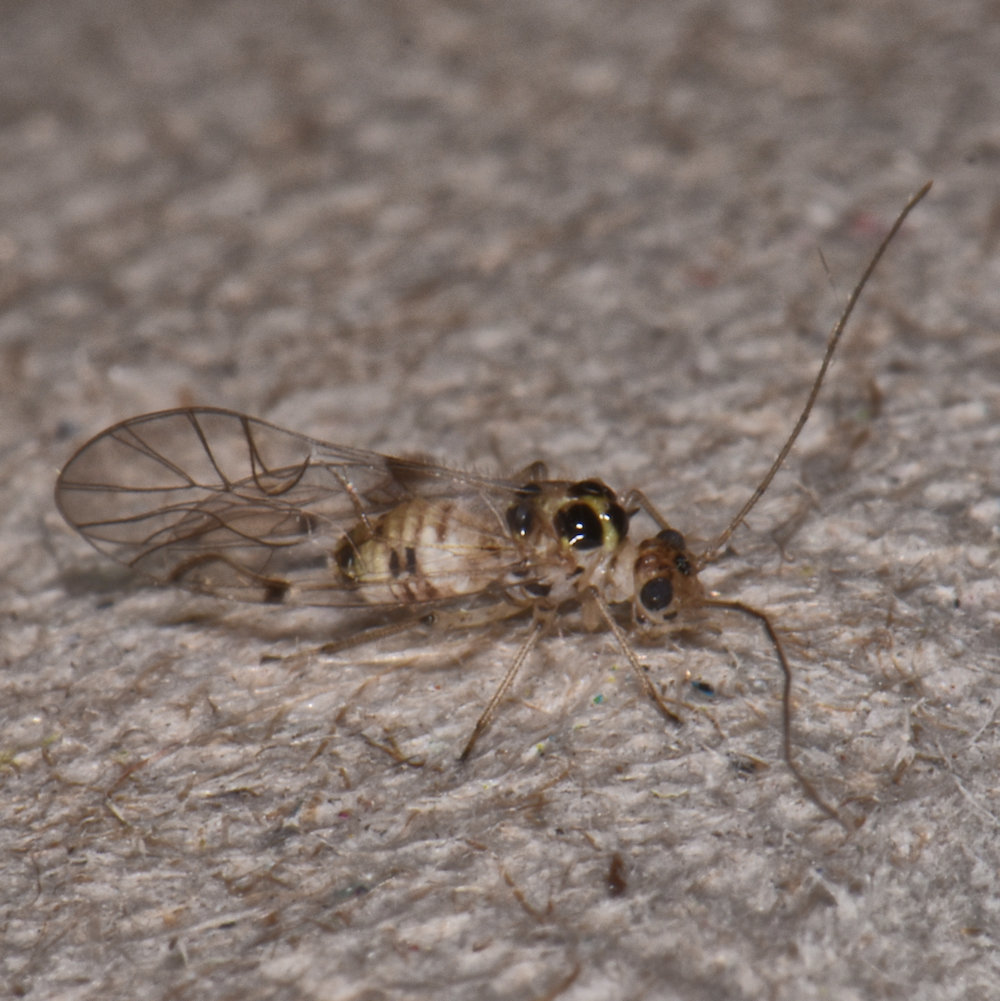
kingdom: Animalia
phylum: Arthropoda
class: Insecta
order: Psocodea
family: Dasydemellidae
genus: Teliapsocus
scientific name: Teliapsocus conterminus
